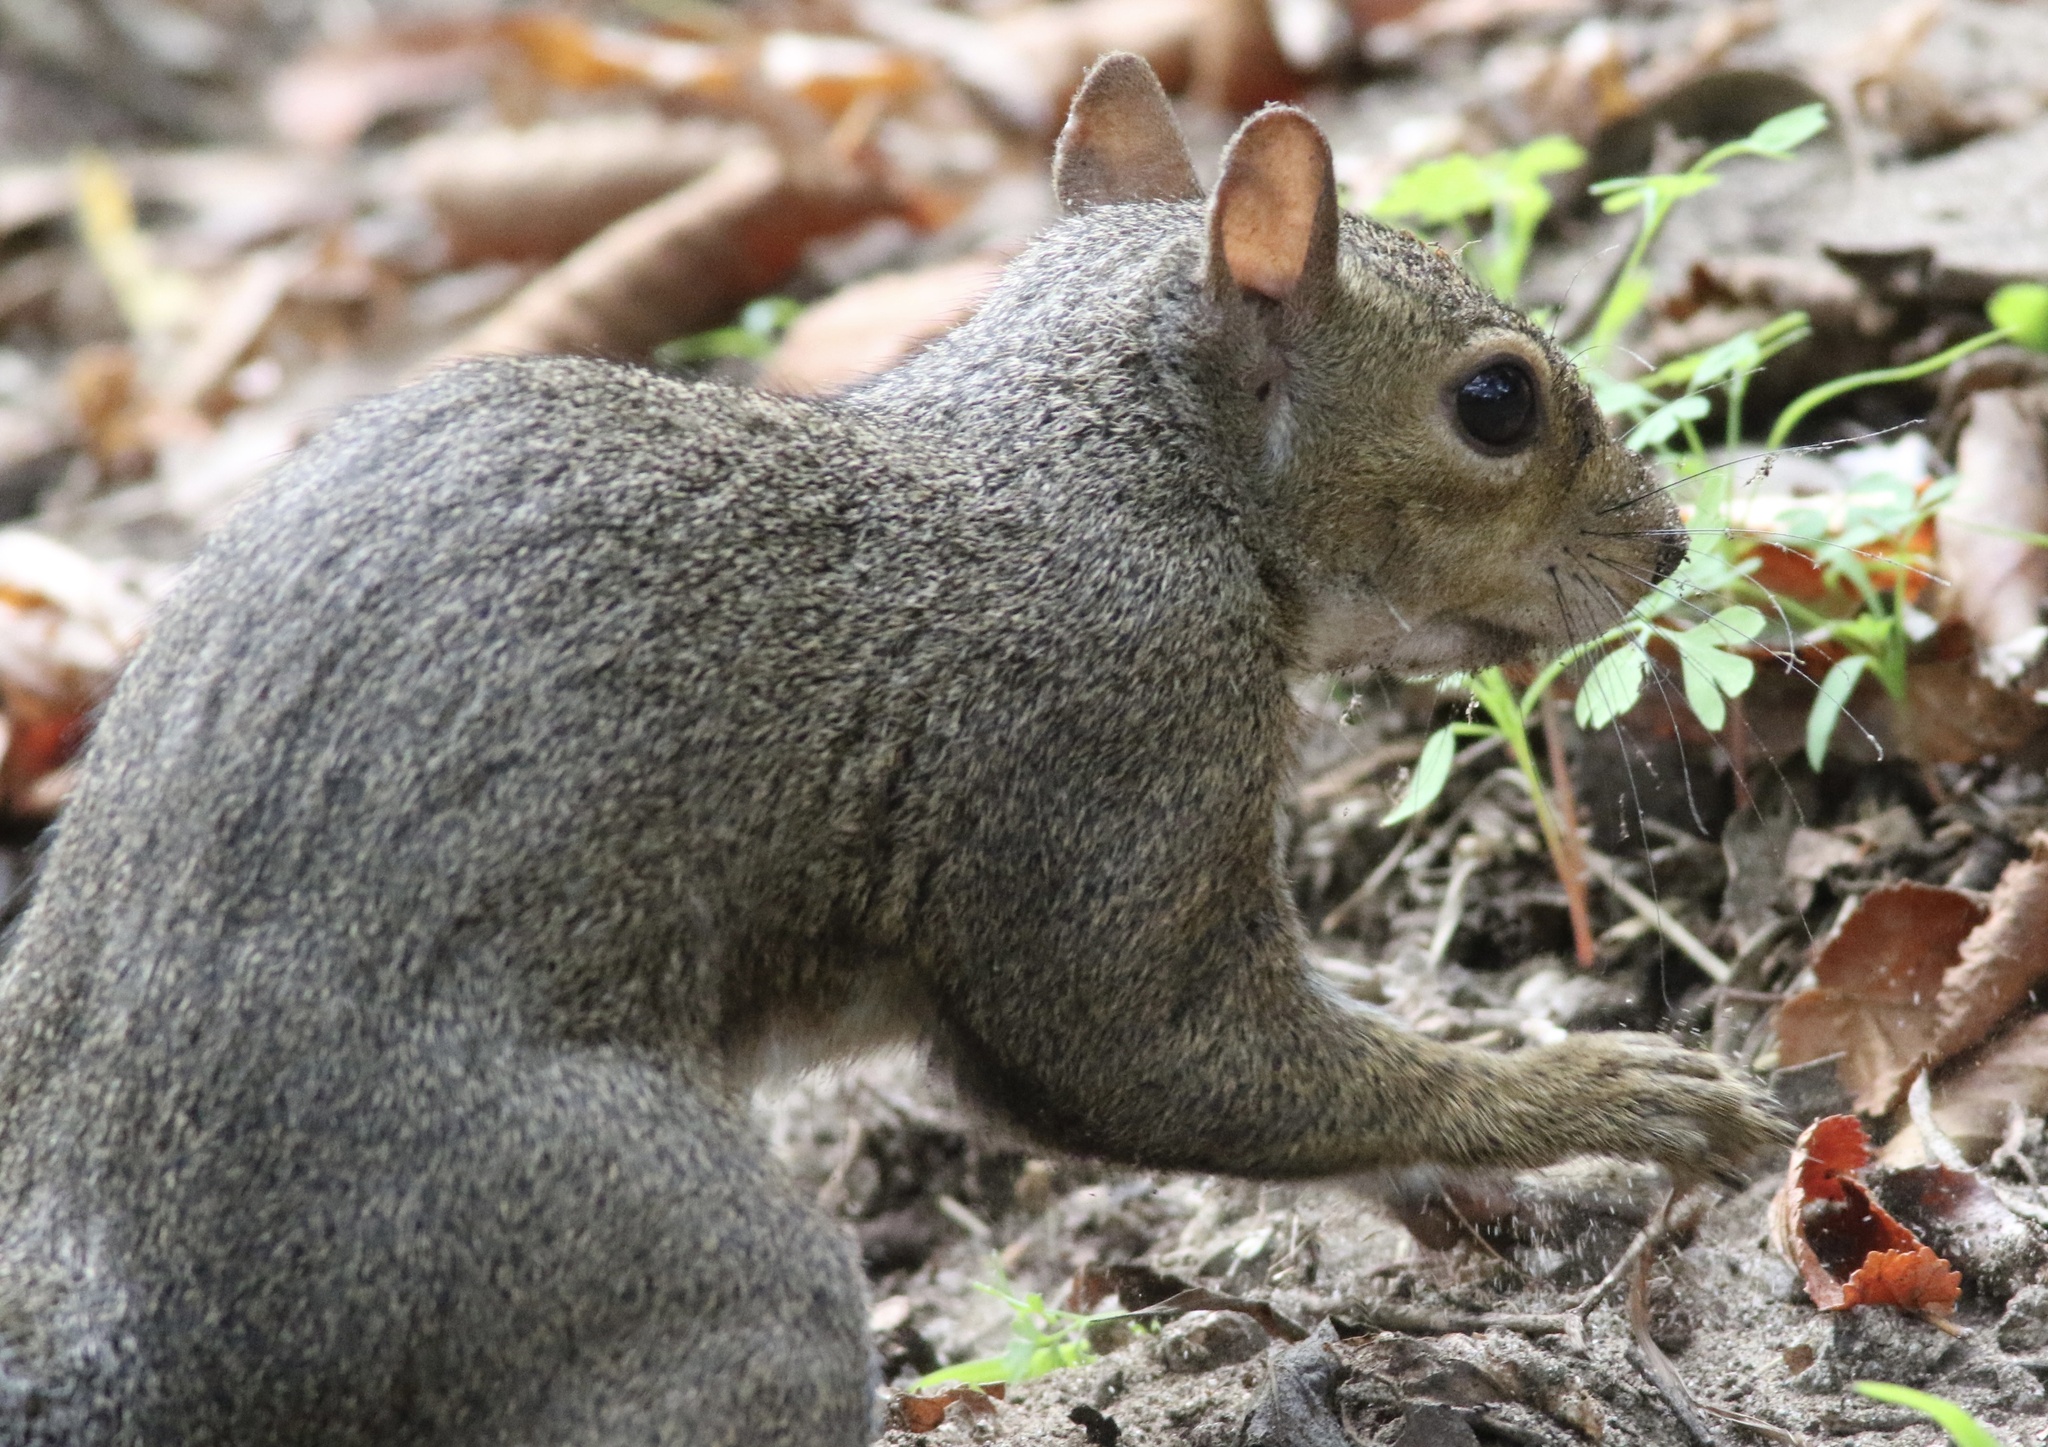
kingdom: Animalia
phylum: Chordata
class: Mammalia
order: Rodentia
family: Sciuridae
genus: Sciurus
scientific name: Sciurus carolinensis
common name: Eastern gray squirrel
